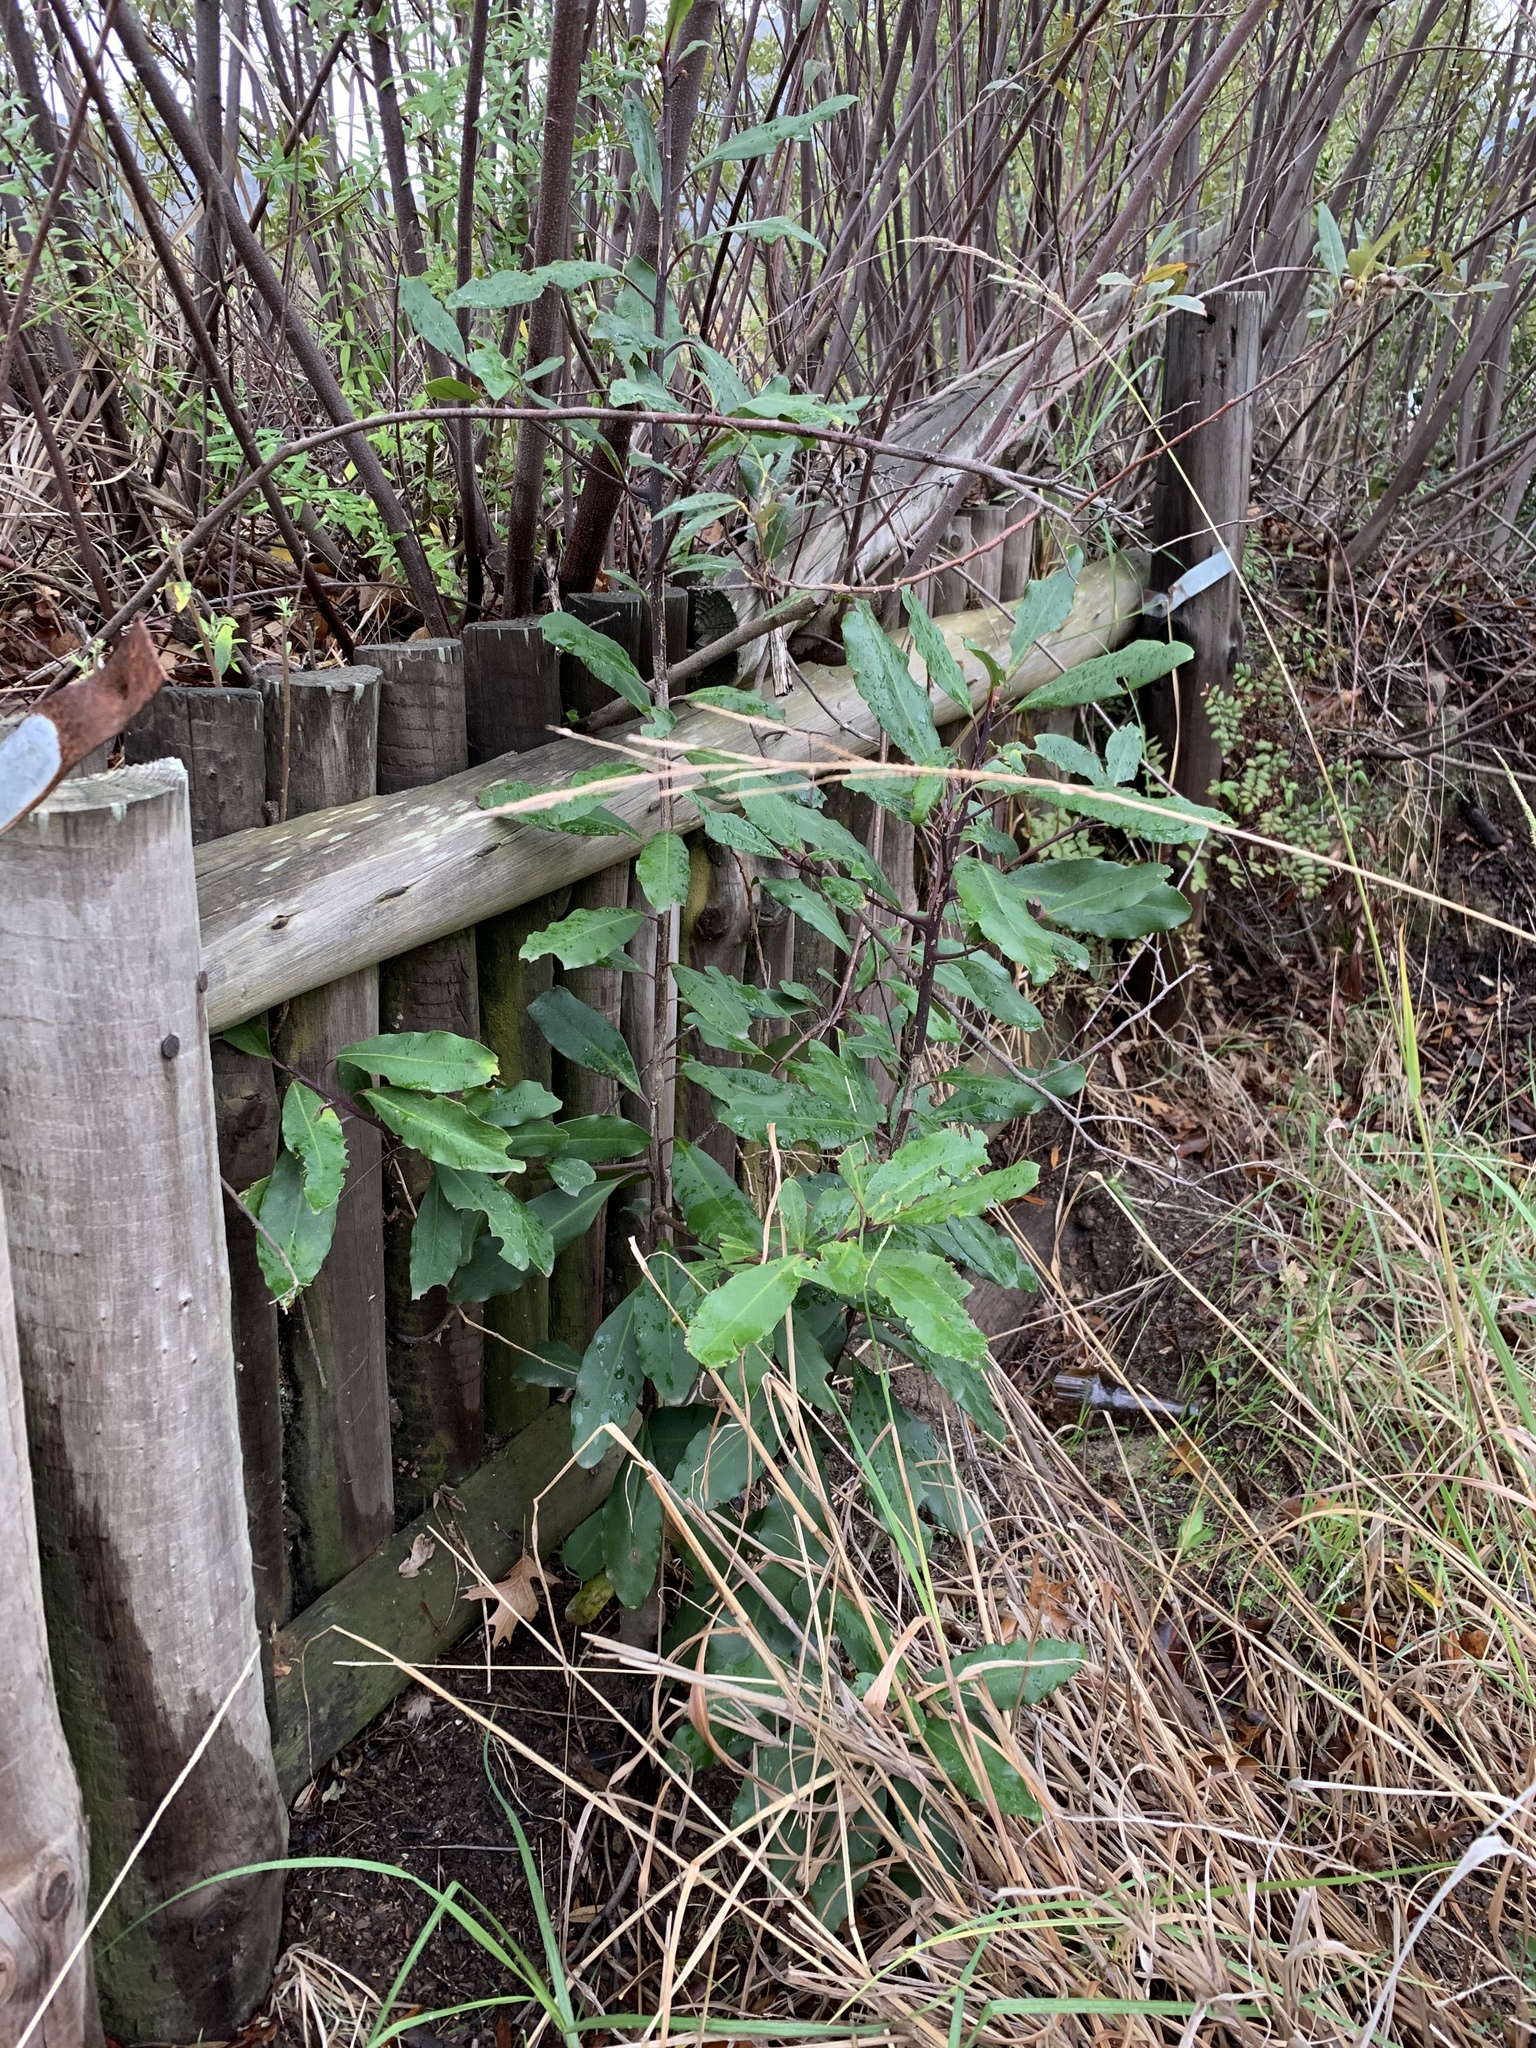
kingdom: Plantae
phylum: Tracheophyta
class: Magnoliopsida
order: Ericales
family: Primulaceae
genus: Myrsine
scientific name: Myrsine melanophloeos
